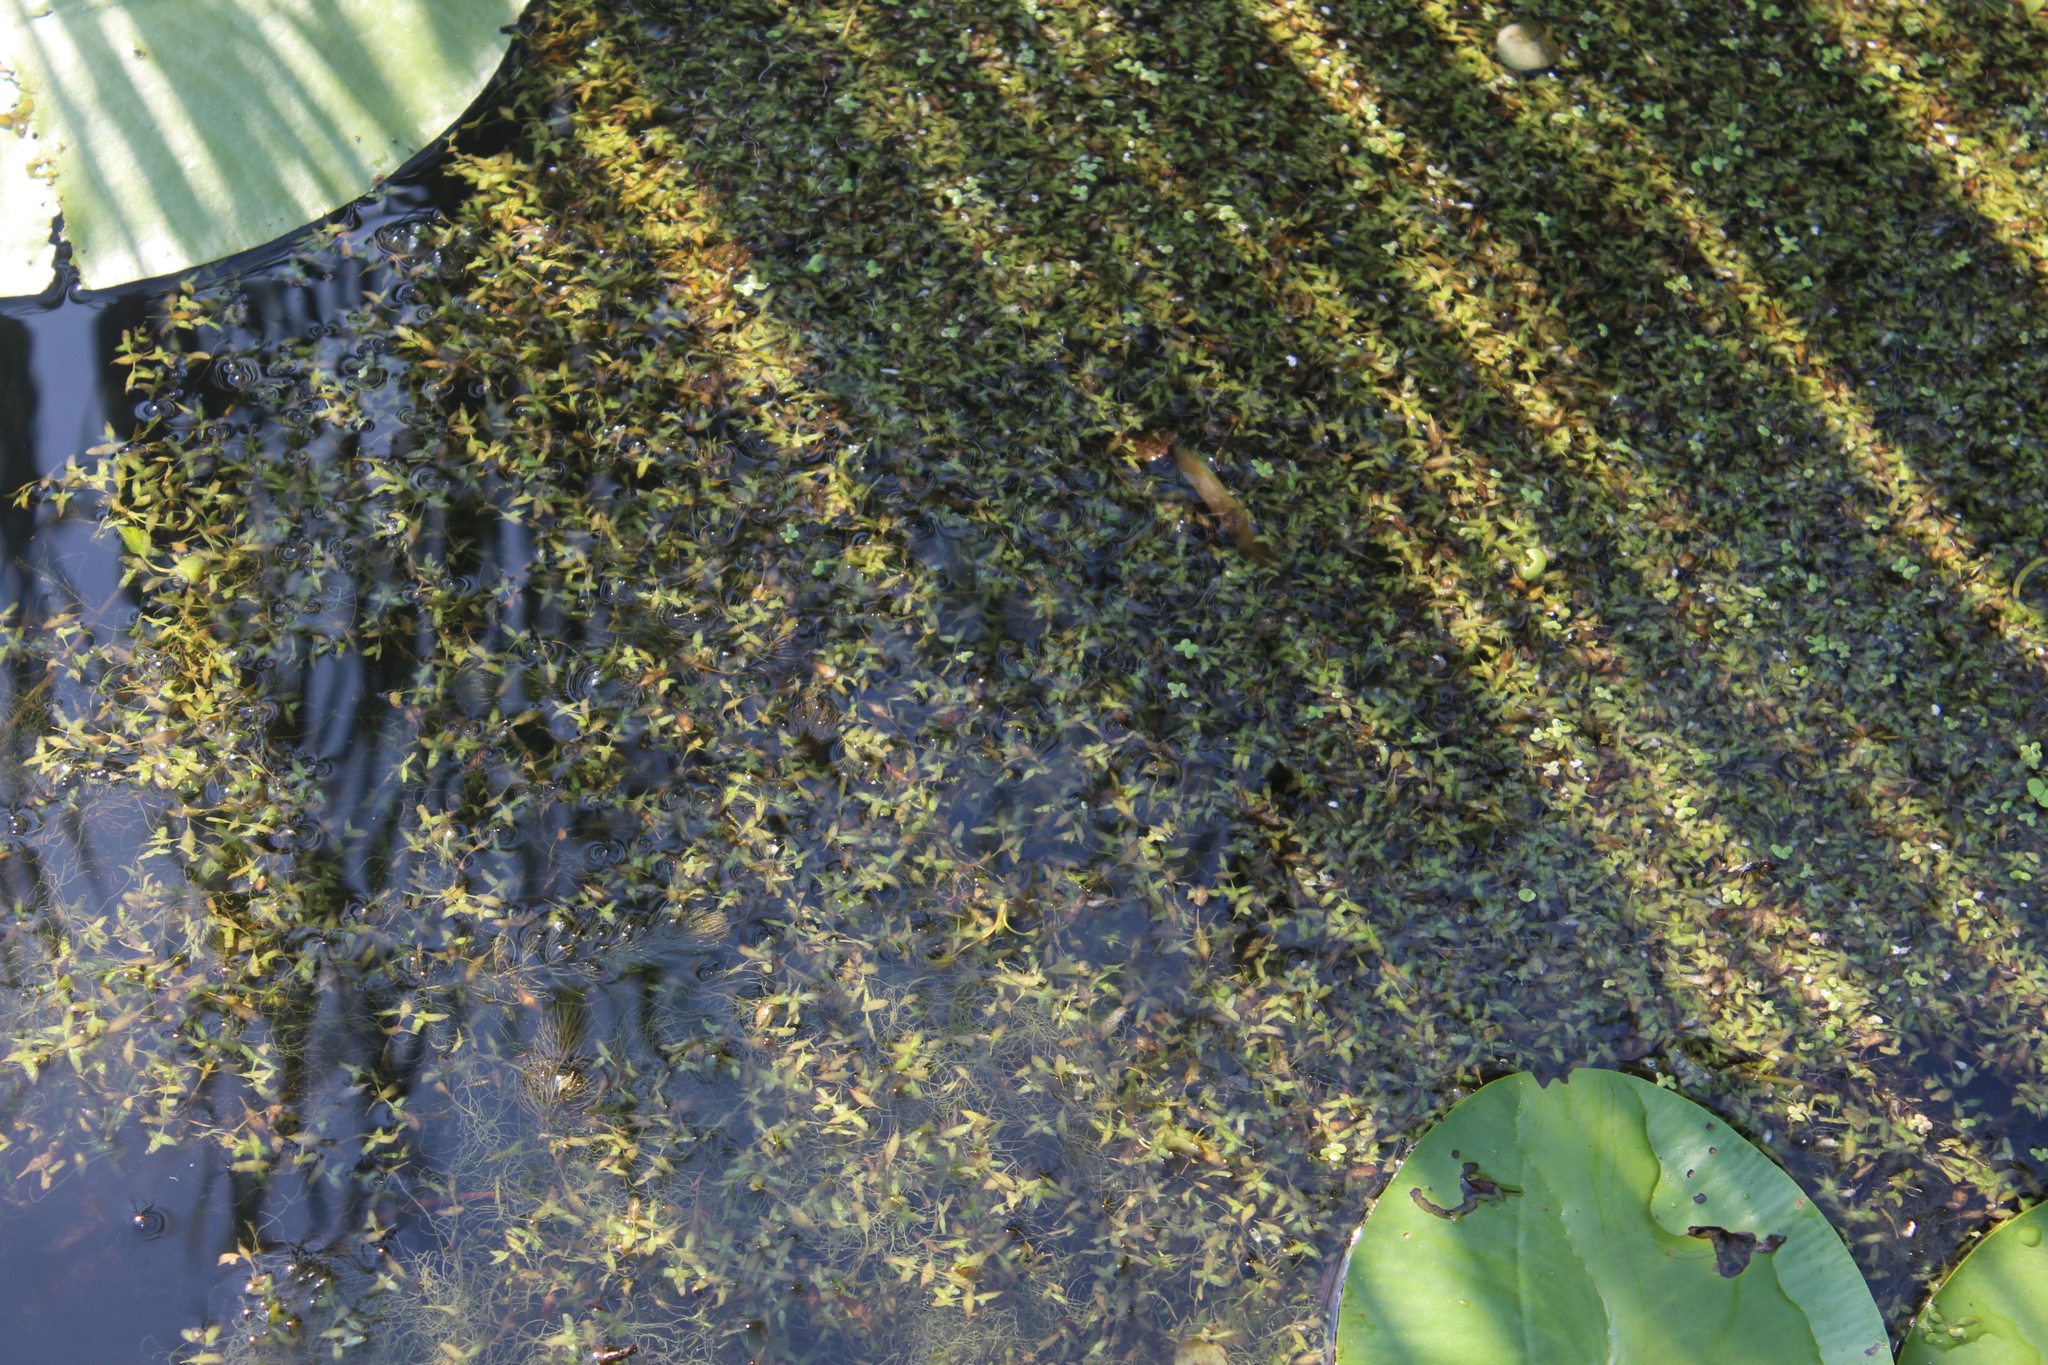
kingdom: Plantae
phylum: Tracheophyta
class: Liliopsida
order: Alismatales
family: Araceae
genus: Lemna
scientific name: Lemna trisulca
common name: Ivy-leaved duckweed
